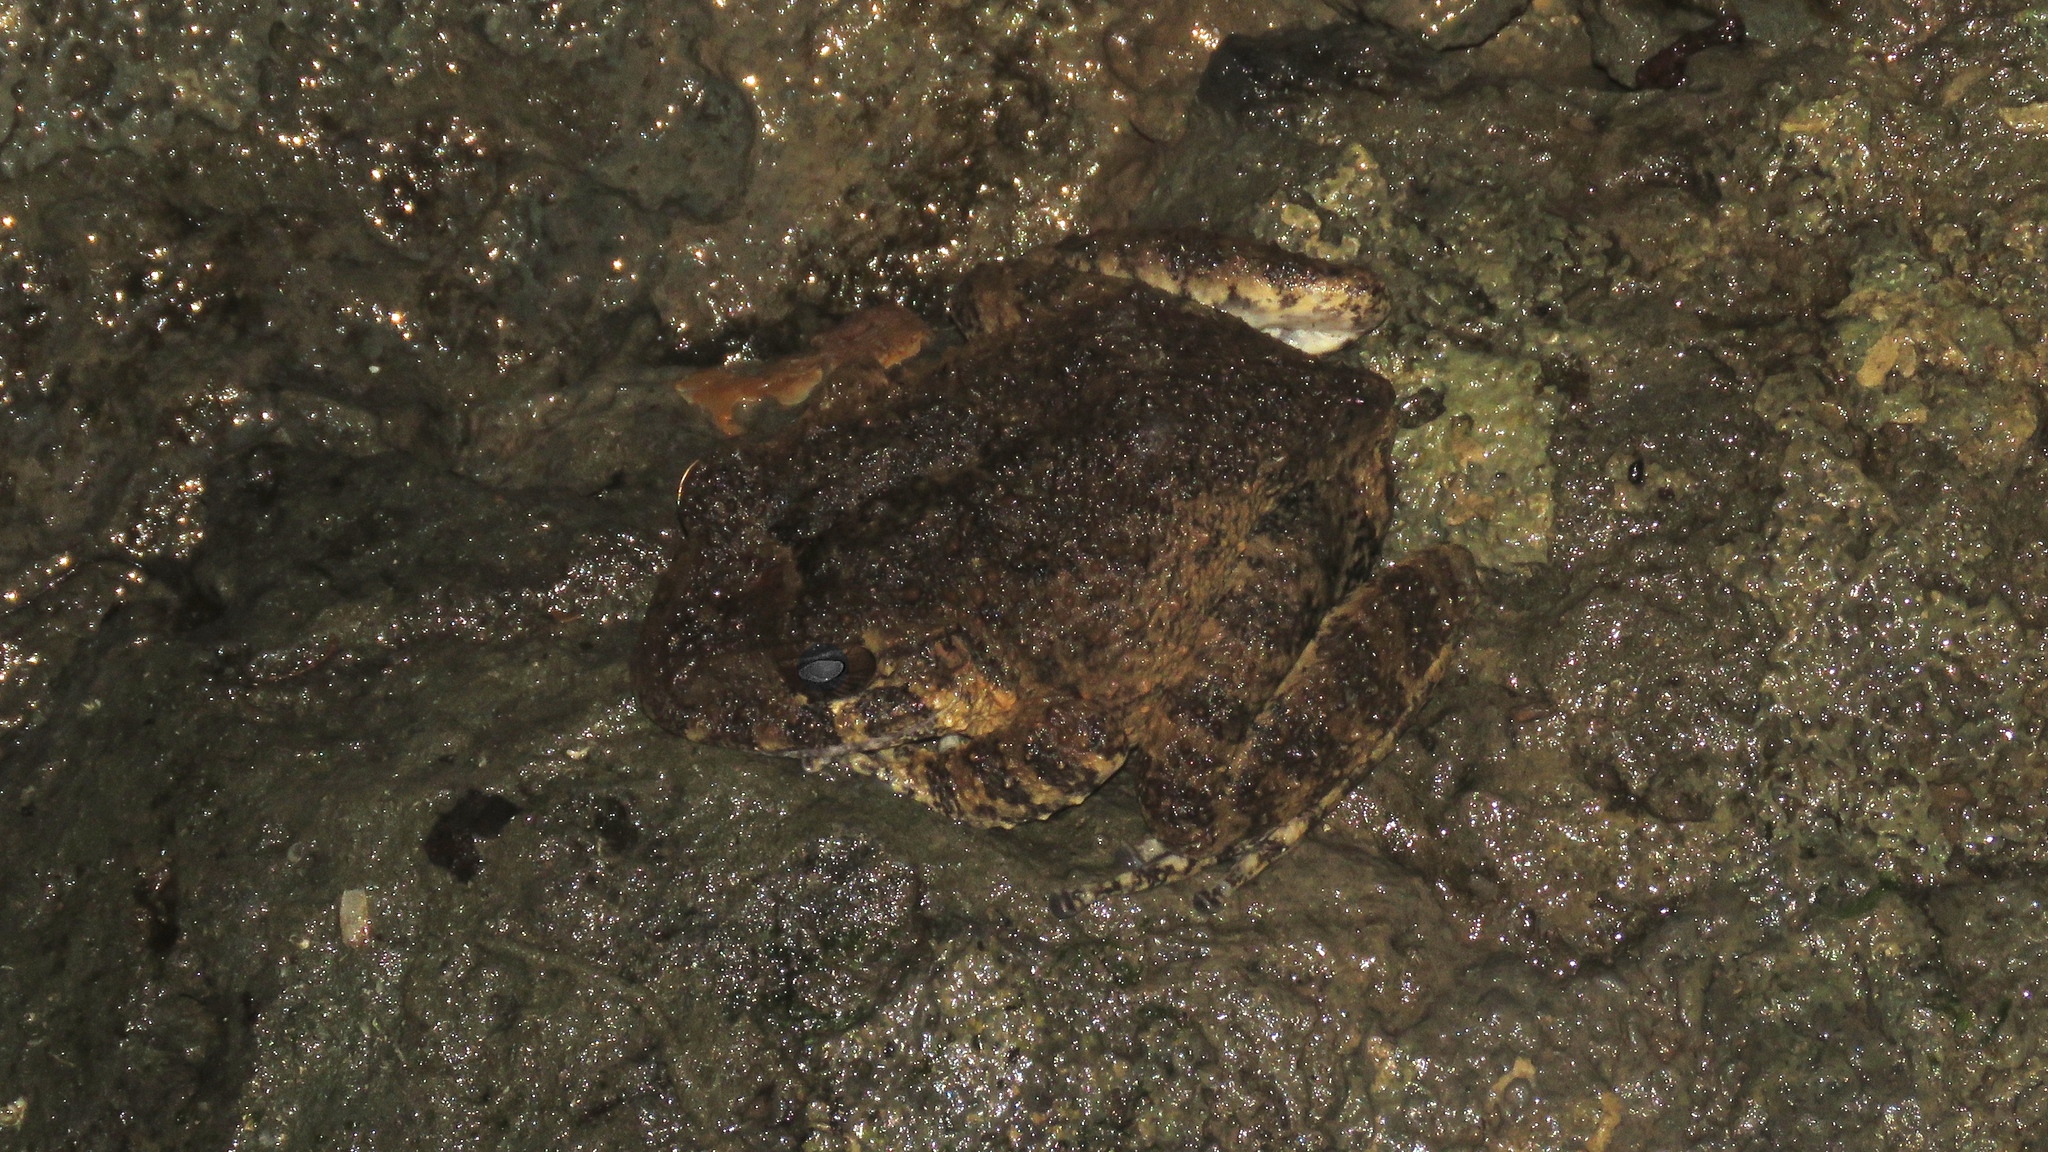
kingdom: Animalia
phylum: Chordata
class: Amphibia
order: Anura
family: Craugastoridae
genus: Craugastor
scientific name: Craugastor taurus
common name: Golfito robber frog
